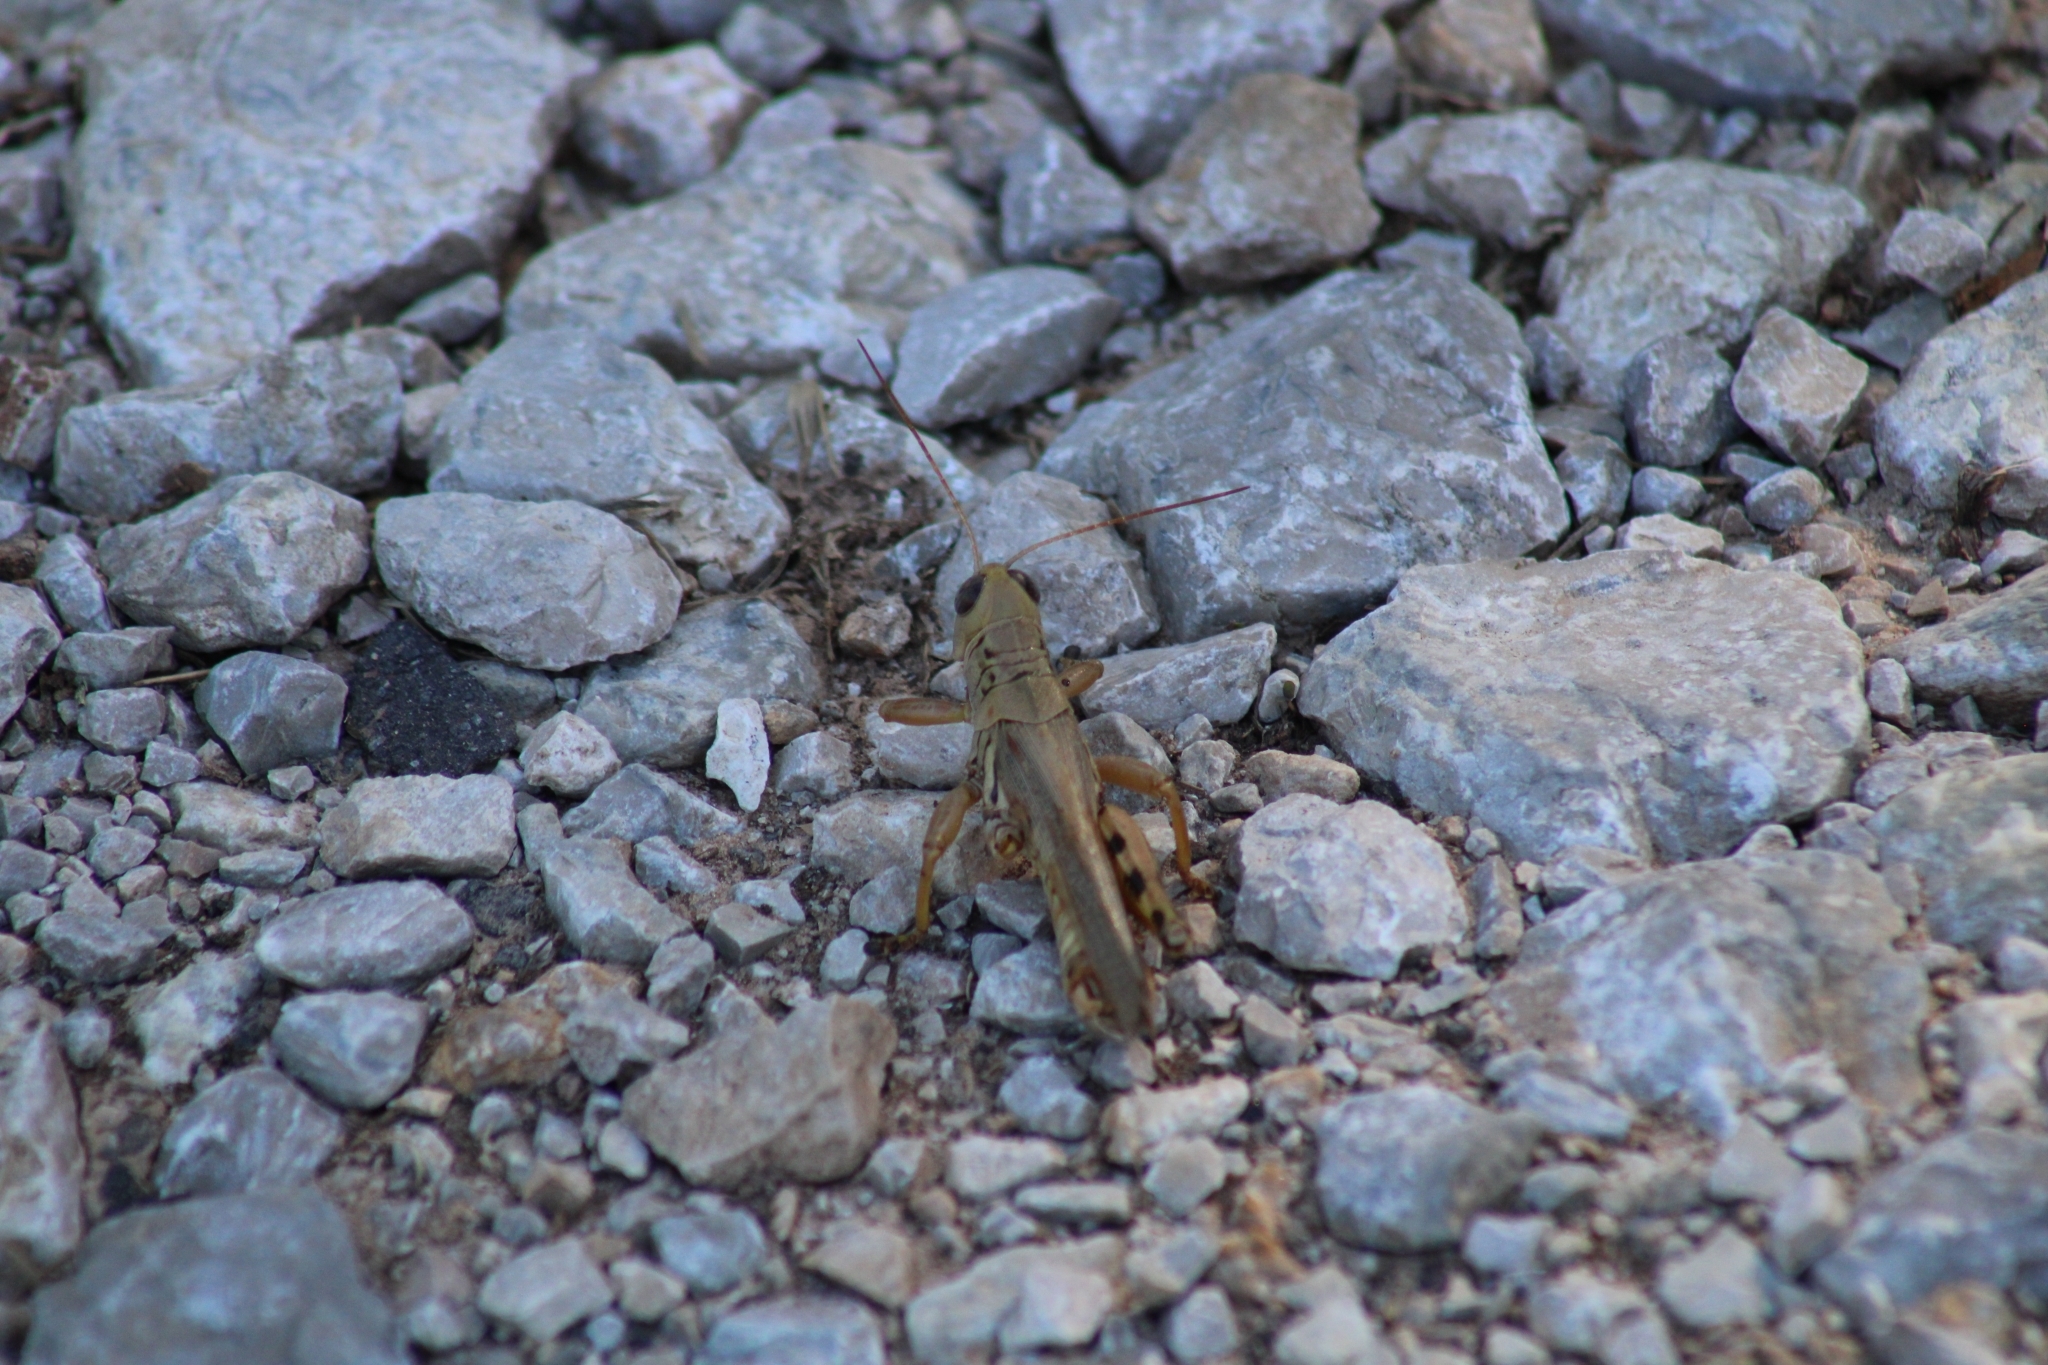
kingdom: Animalia
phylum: Arthropoda
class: Insecta
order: Orthoptera
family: Acrididae
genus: Melanoplus
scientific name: Melanoplus differentialis
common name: Differential grasshopper
